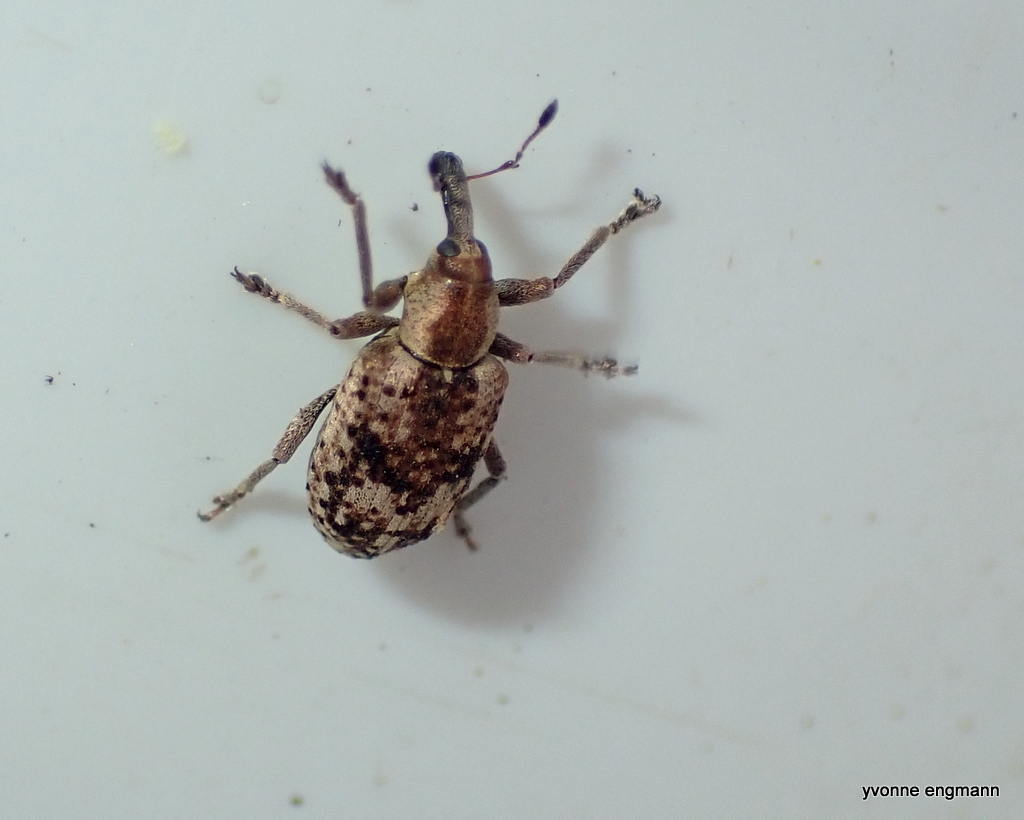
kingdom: Animalia
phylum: Arthropoda
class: Insecta
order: Coleoptera
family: Curculionidae
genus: Hypera
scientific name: Hypera rumicis
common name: Weevil
